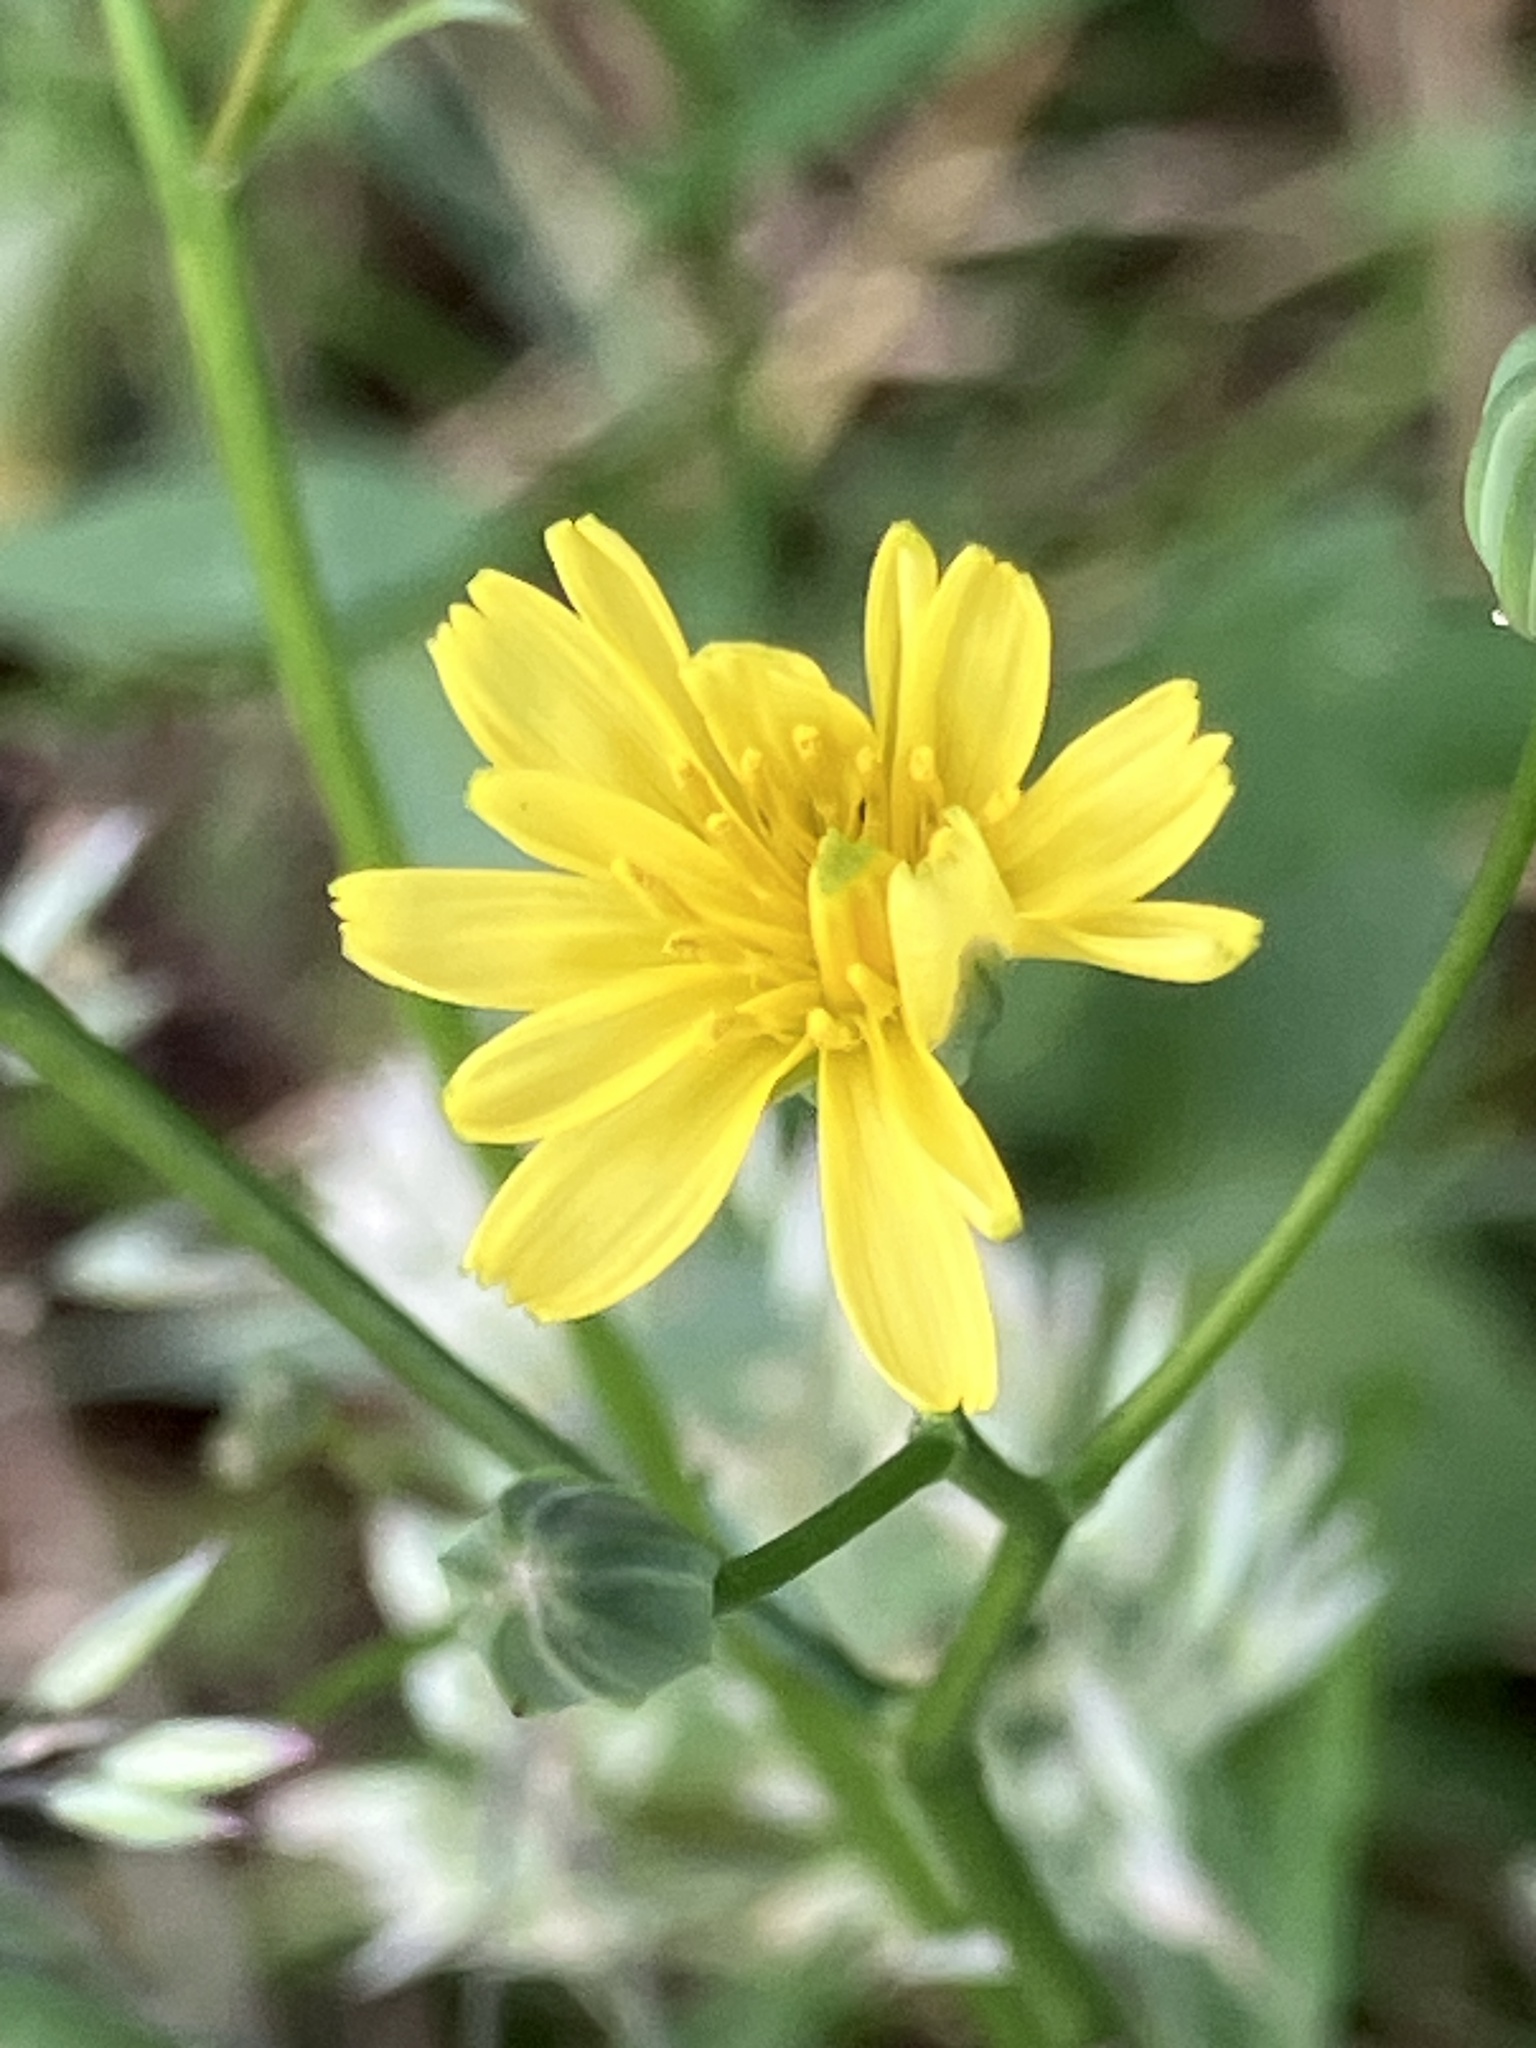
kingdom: Plantae
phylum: Tracheophyta
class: Magnoliopsida
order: Asterales
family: Asteraceae
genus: Lapsana
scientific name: Lapsana communis
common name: Nipplewort
